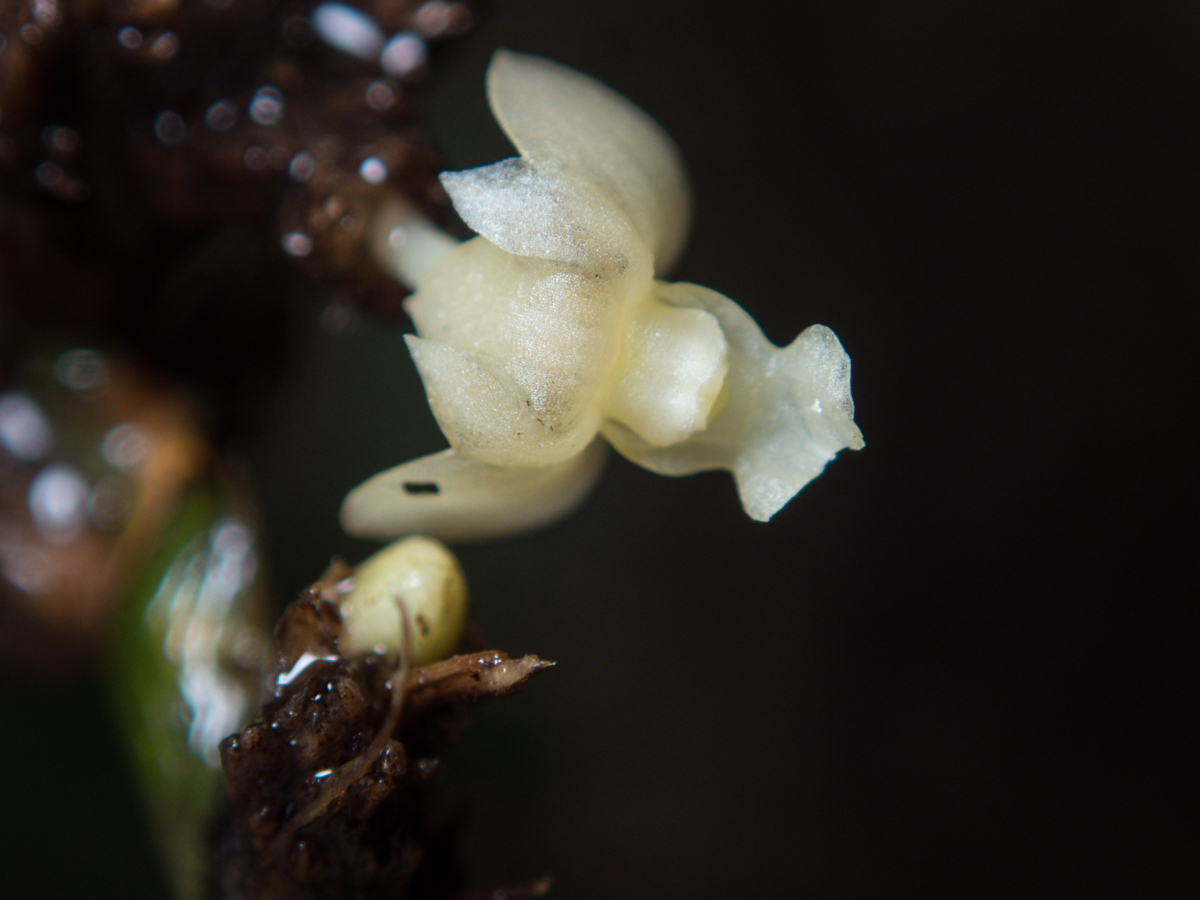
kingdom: Plantae
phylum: Tracheophyta
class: Liliopsida
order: Asparagales
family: Orchidaceae
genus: Dendrobium
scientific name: Dendrobium aloifolium
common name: Aloe-like dendrobium
